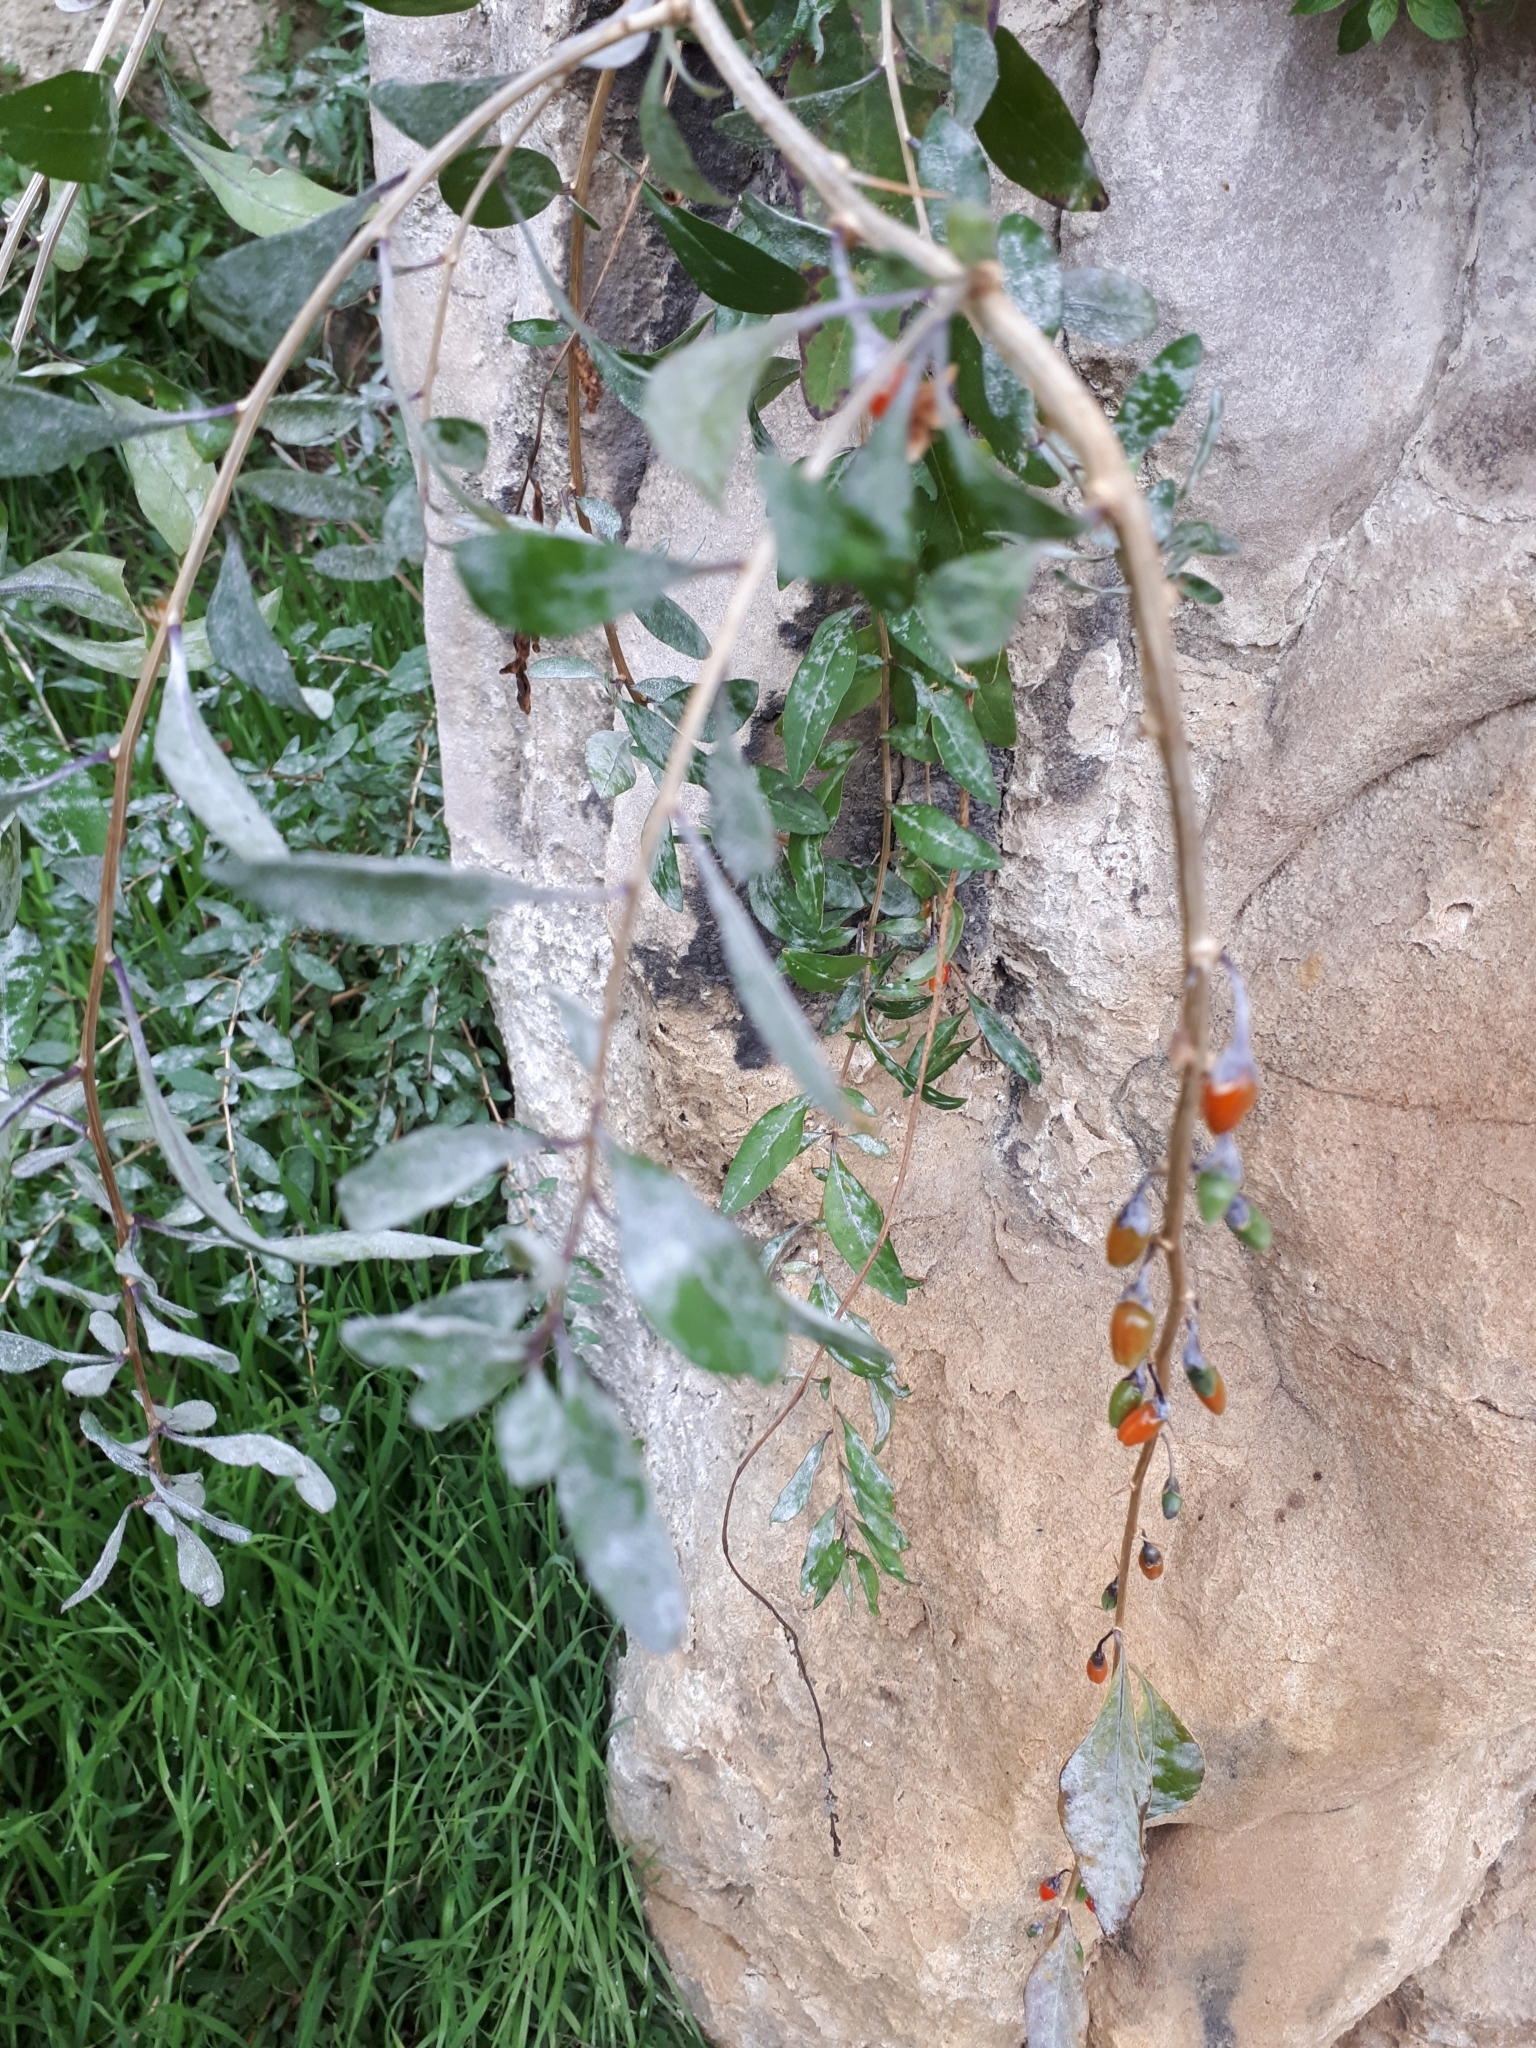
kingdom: Plantae
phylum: Tracheophyta
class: Magnoliopsida
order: Solanales
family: Solanaceae
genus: Lycium
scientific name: Lycium barbarum
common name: Duke of argyll's teaplant
